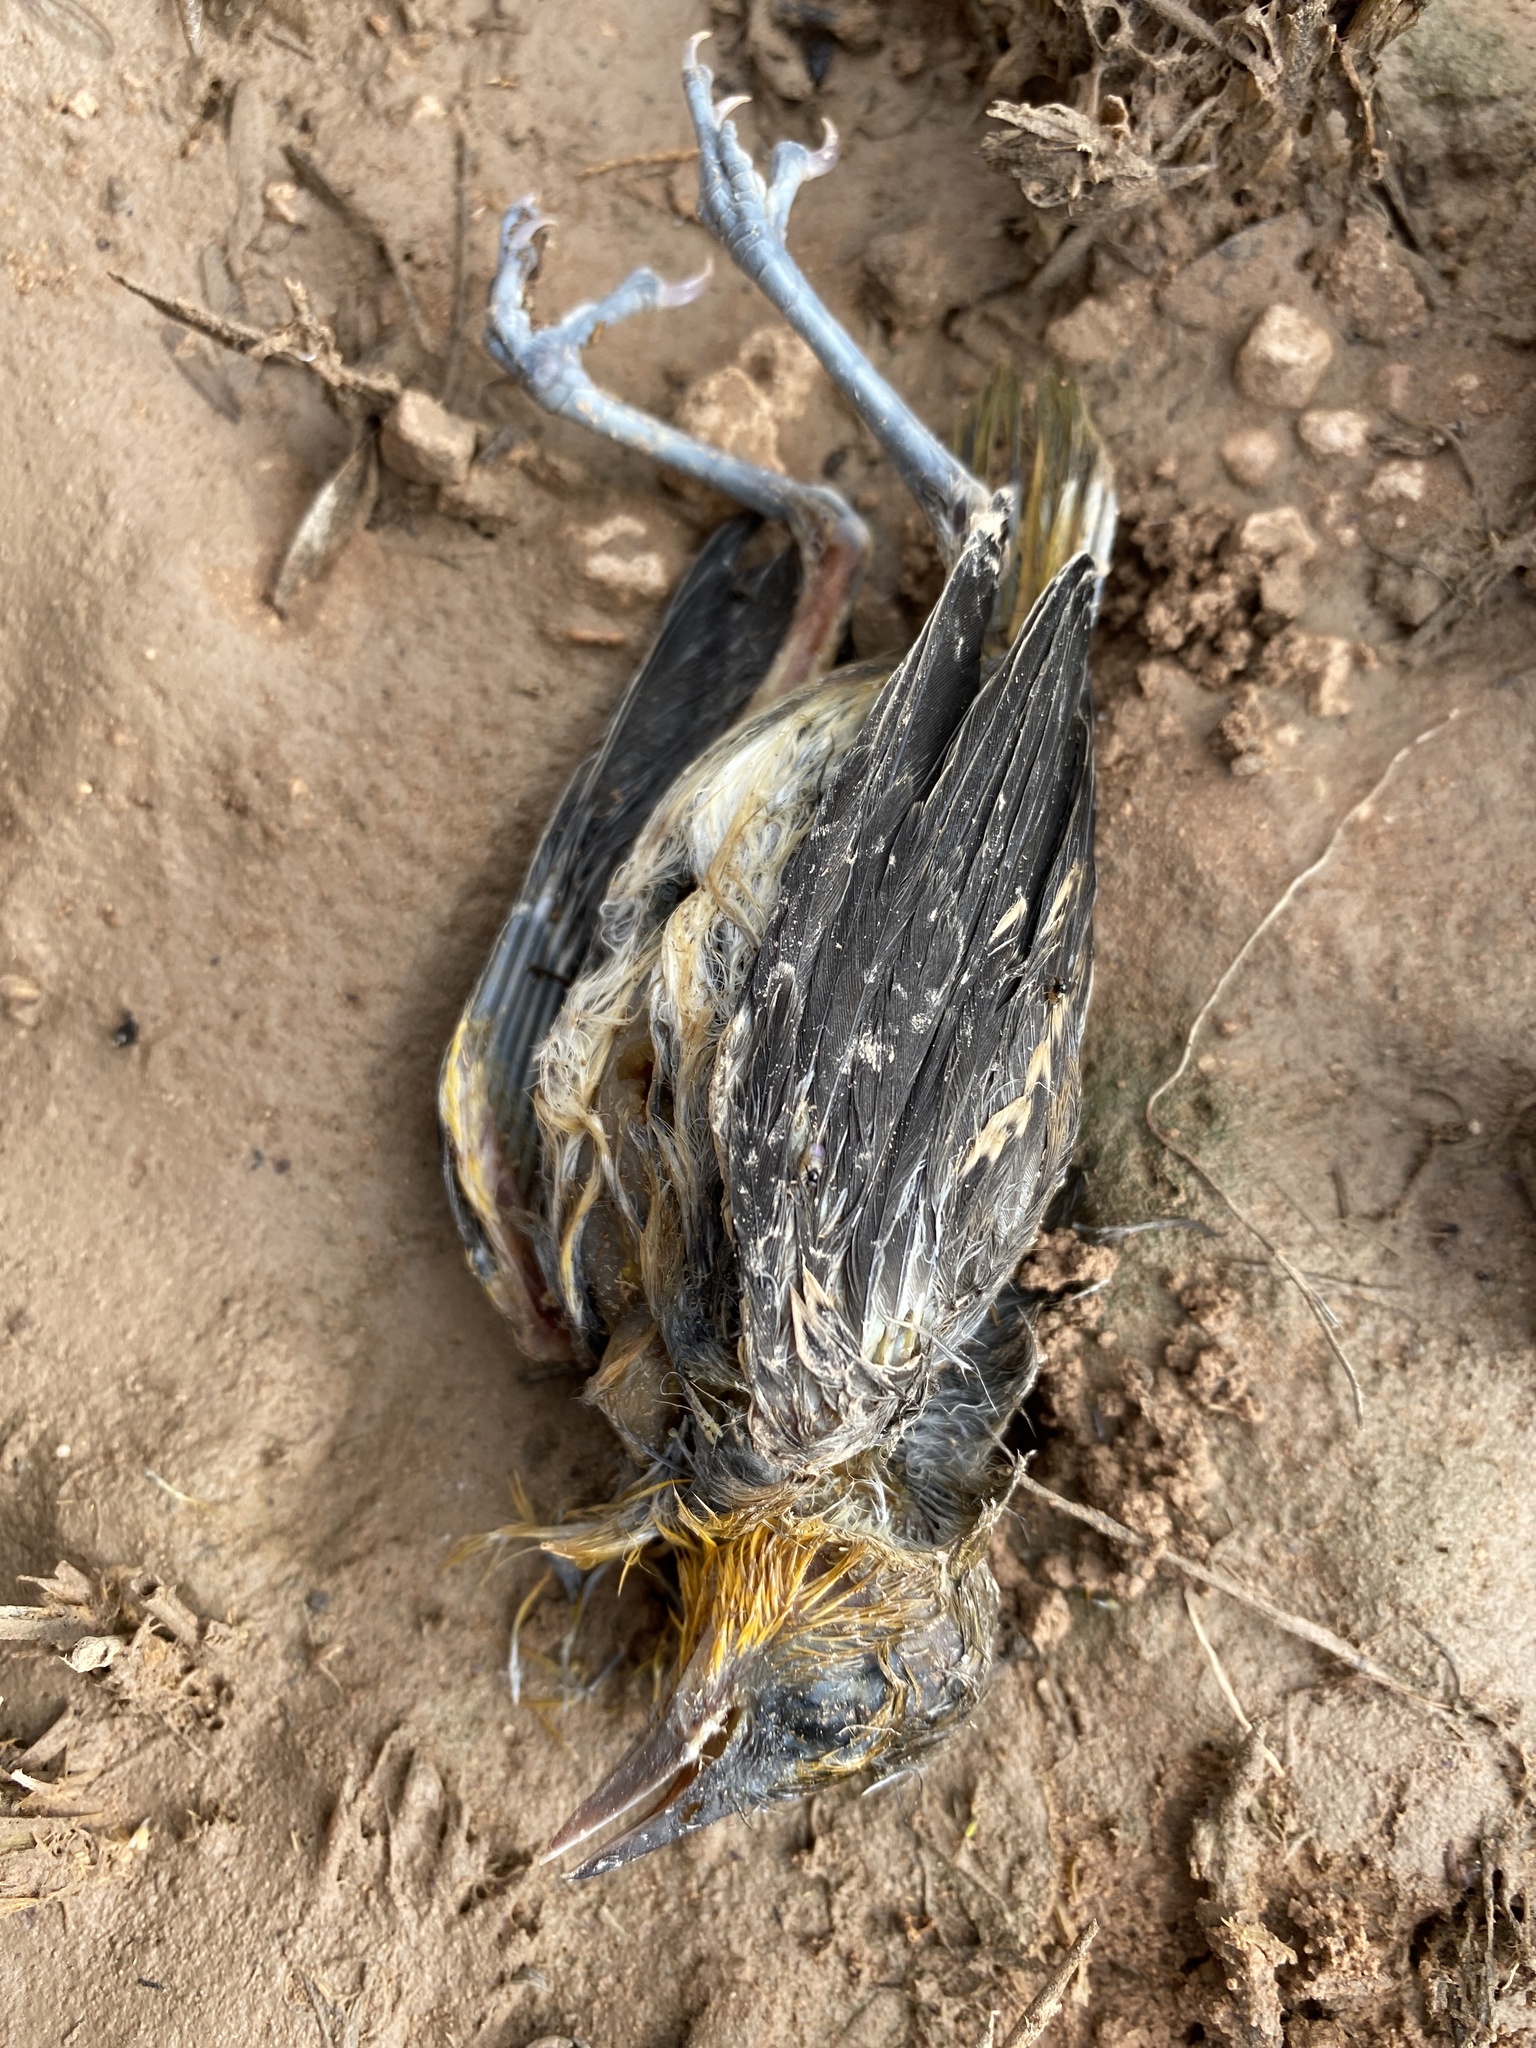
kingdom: Animalia
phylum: Chordata
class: Aves
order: Passeriformes
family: Icteridae
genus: Icterus
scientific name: Icterus bullockii
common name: Bullock's oriole
